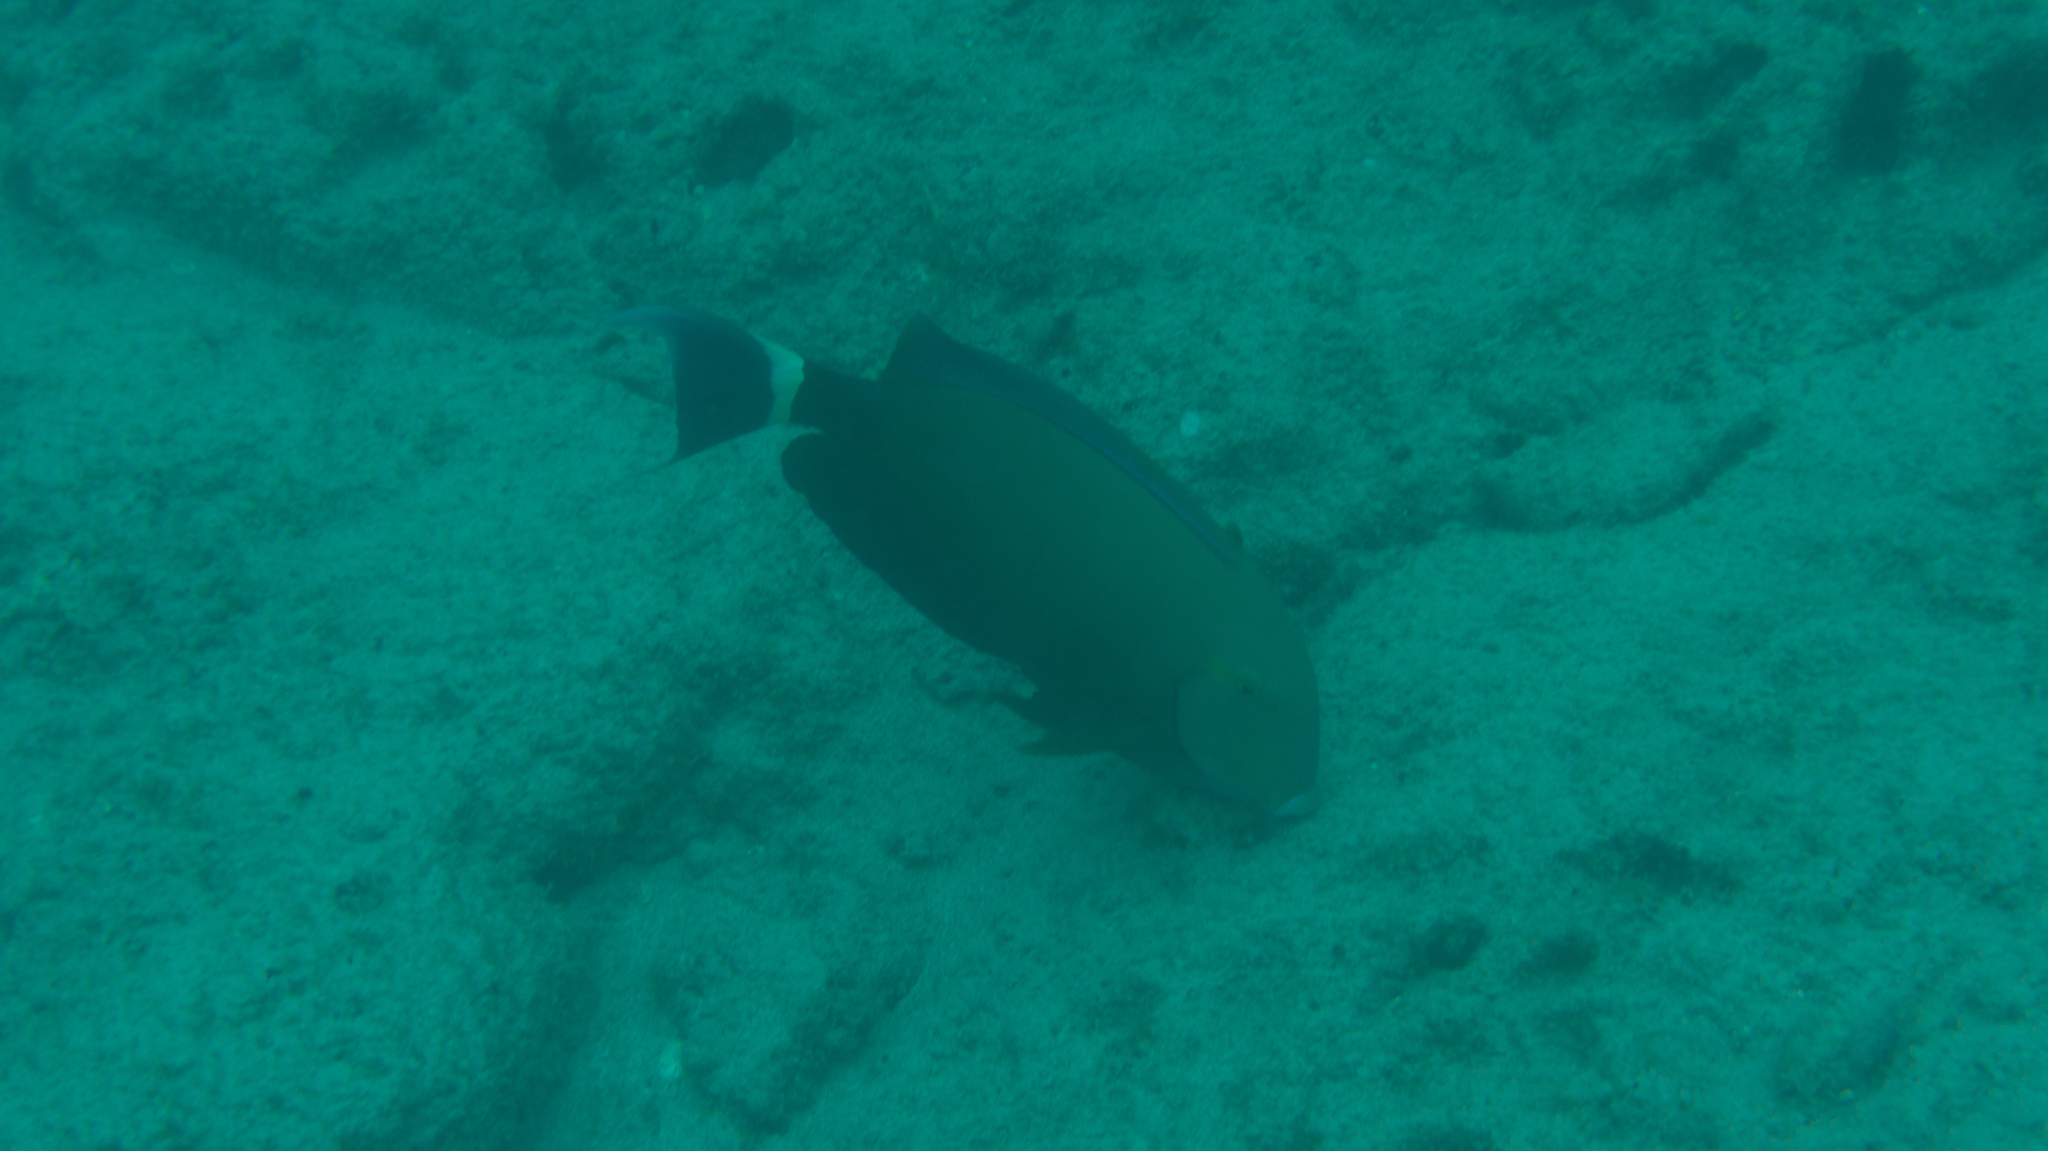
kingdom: Animalia
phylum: Chordata
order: Perciformes
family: Acanthuridae
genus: Acanthurus
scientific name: Acanthurus blochii
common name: Blue-banded pualu
